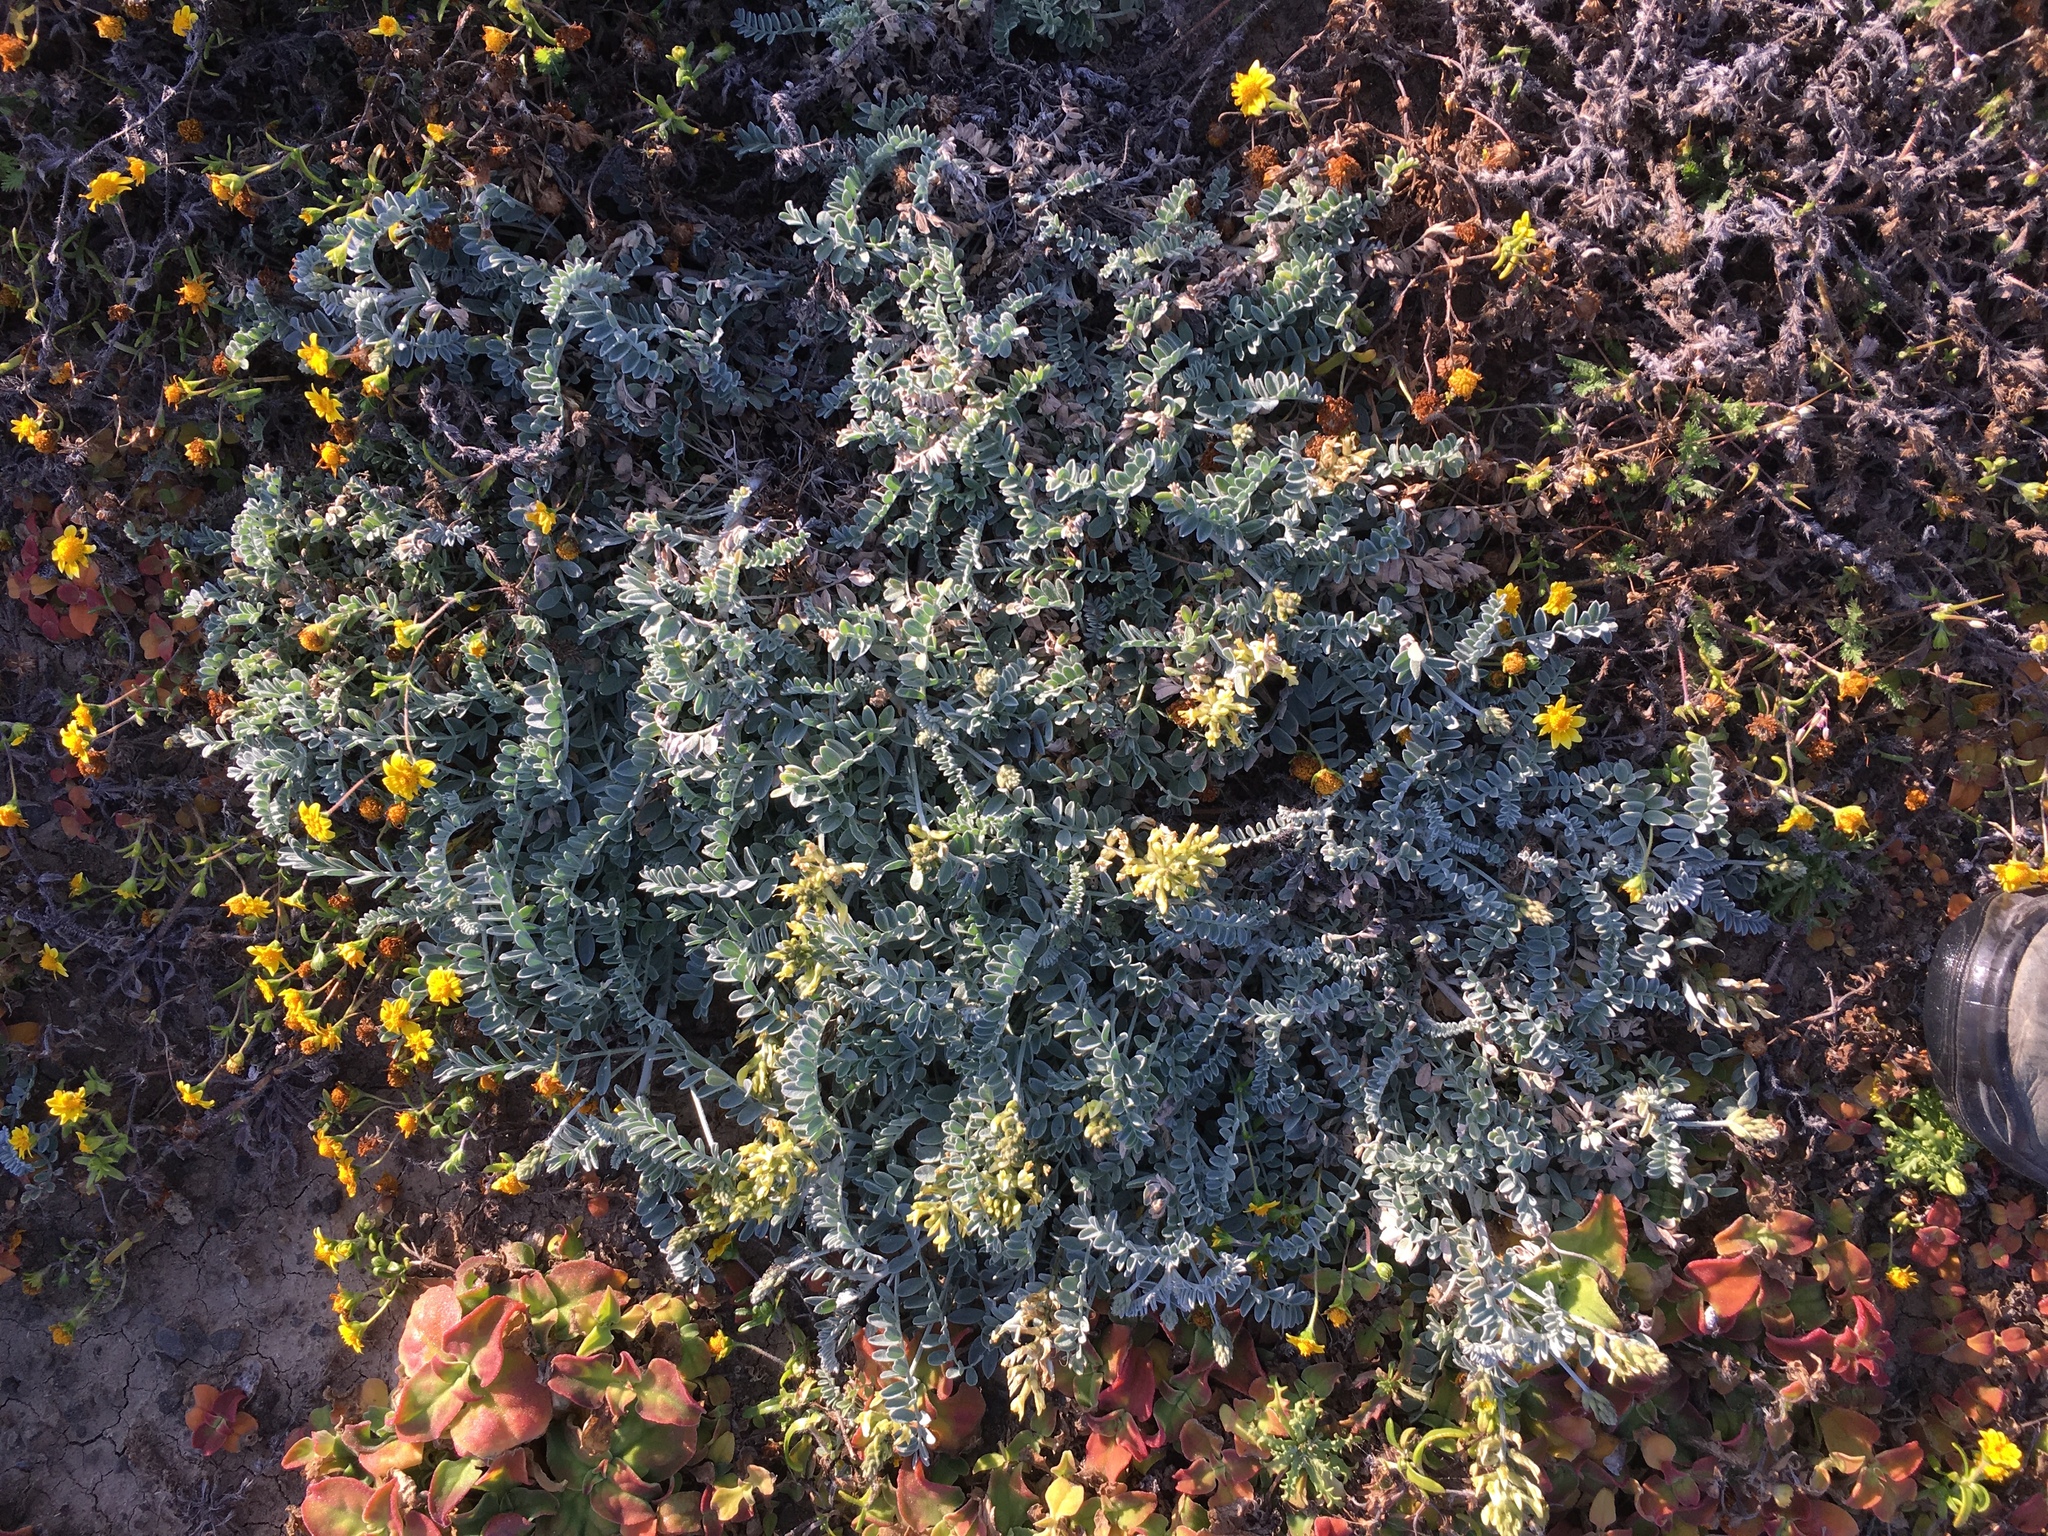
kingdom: Plantae
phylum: Tracheophyta
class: Magnoliopsida
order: Fabales
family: Fabaceae
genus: Astragalus
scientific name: Astragalus traskiae
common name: Trask's milk-vetch
